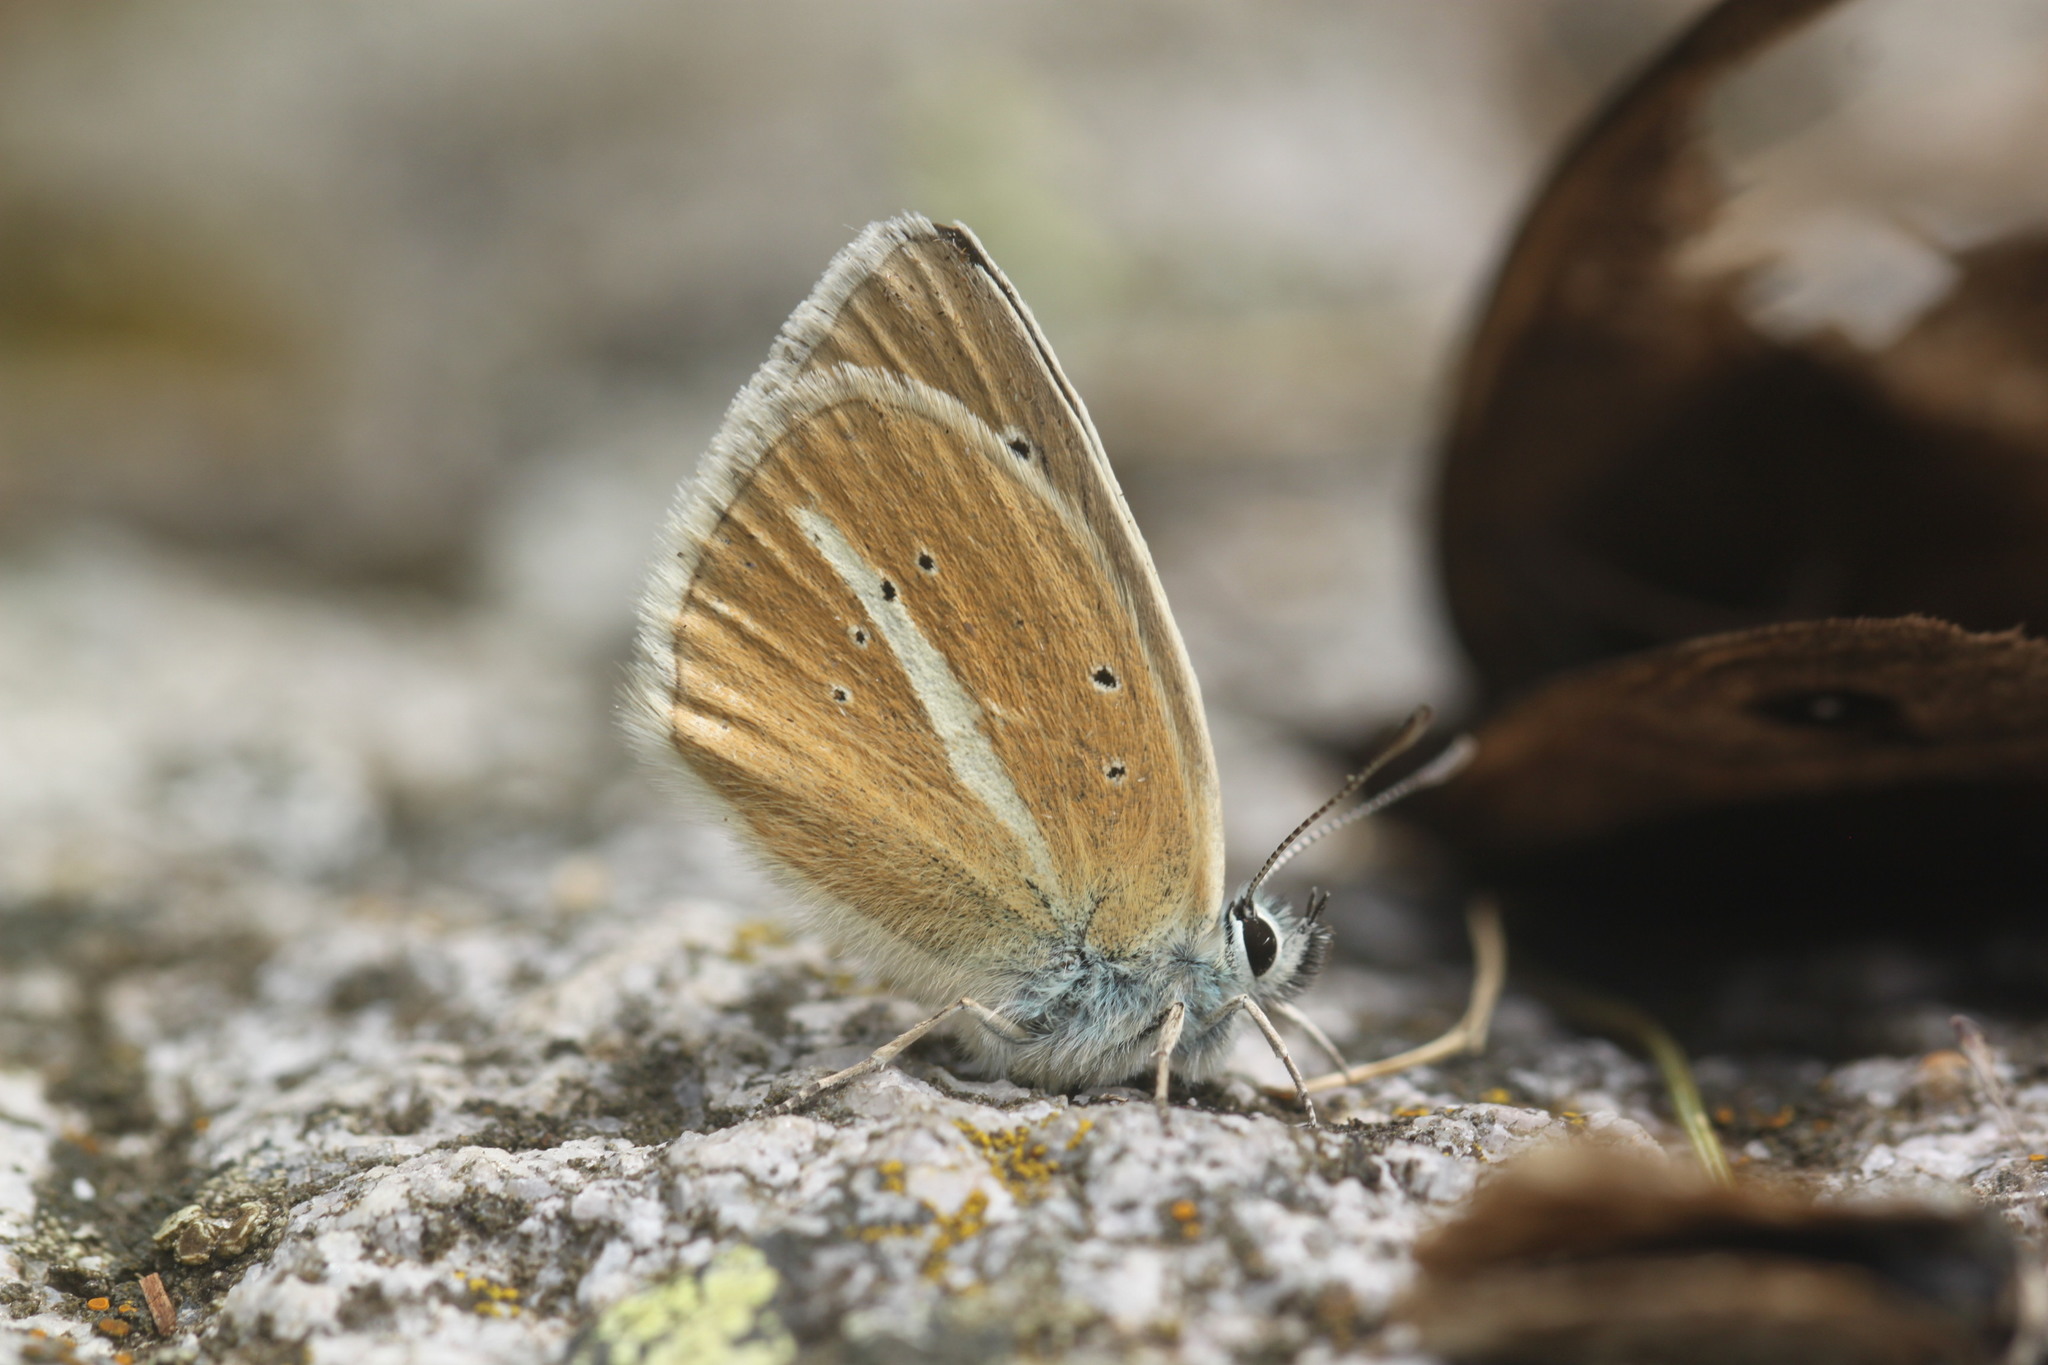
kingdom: Animalia
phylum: Arthropoda
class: Insecta
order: Lepidoptera
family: Lycaenidae
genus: Agrodiaetus
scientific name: Agrodiaetus damon
